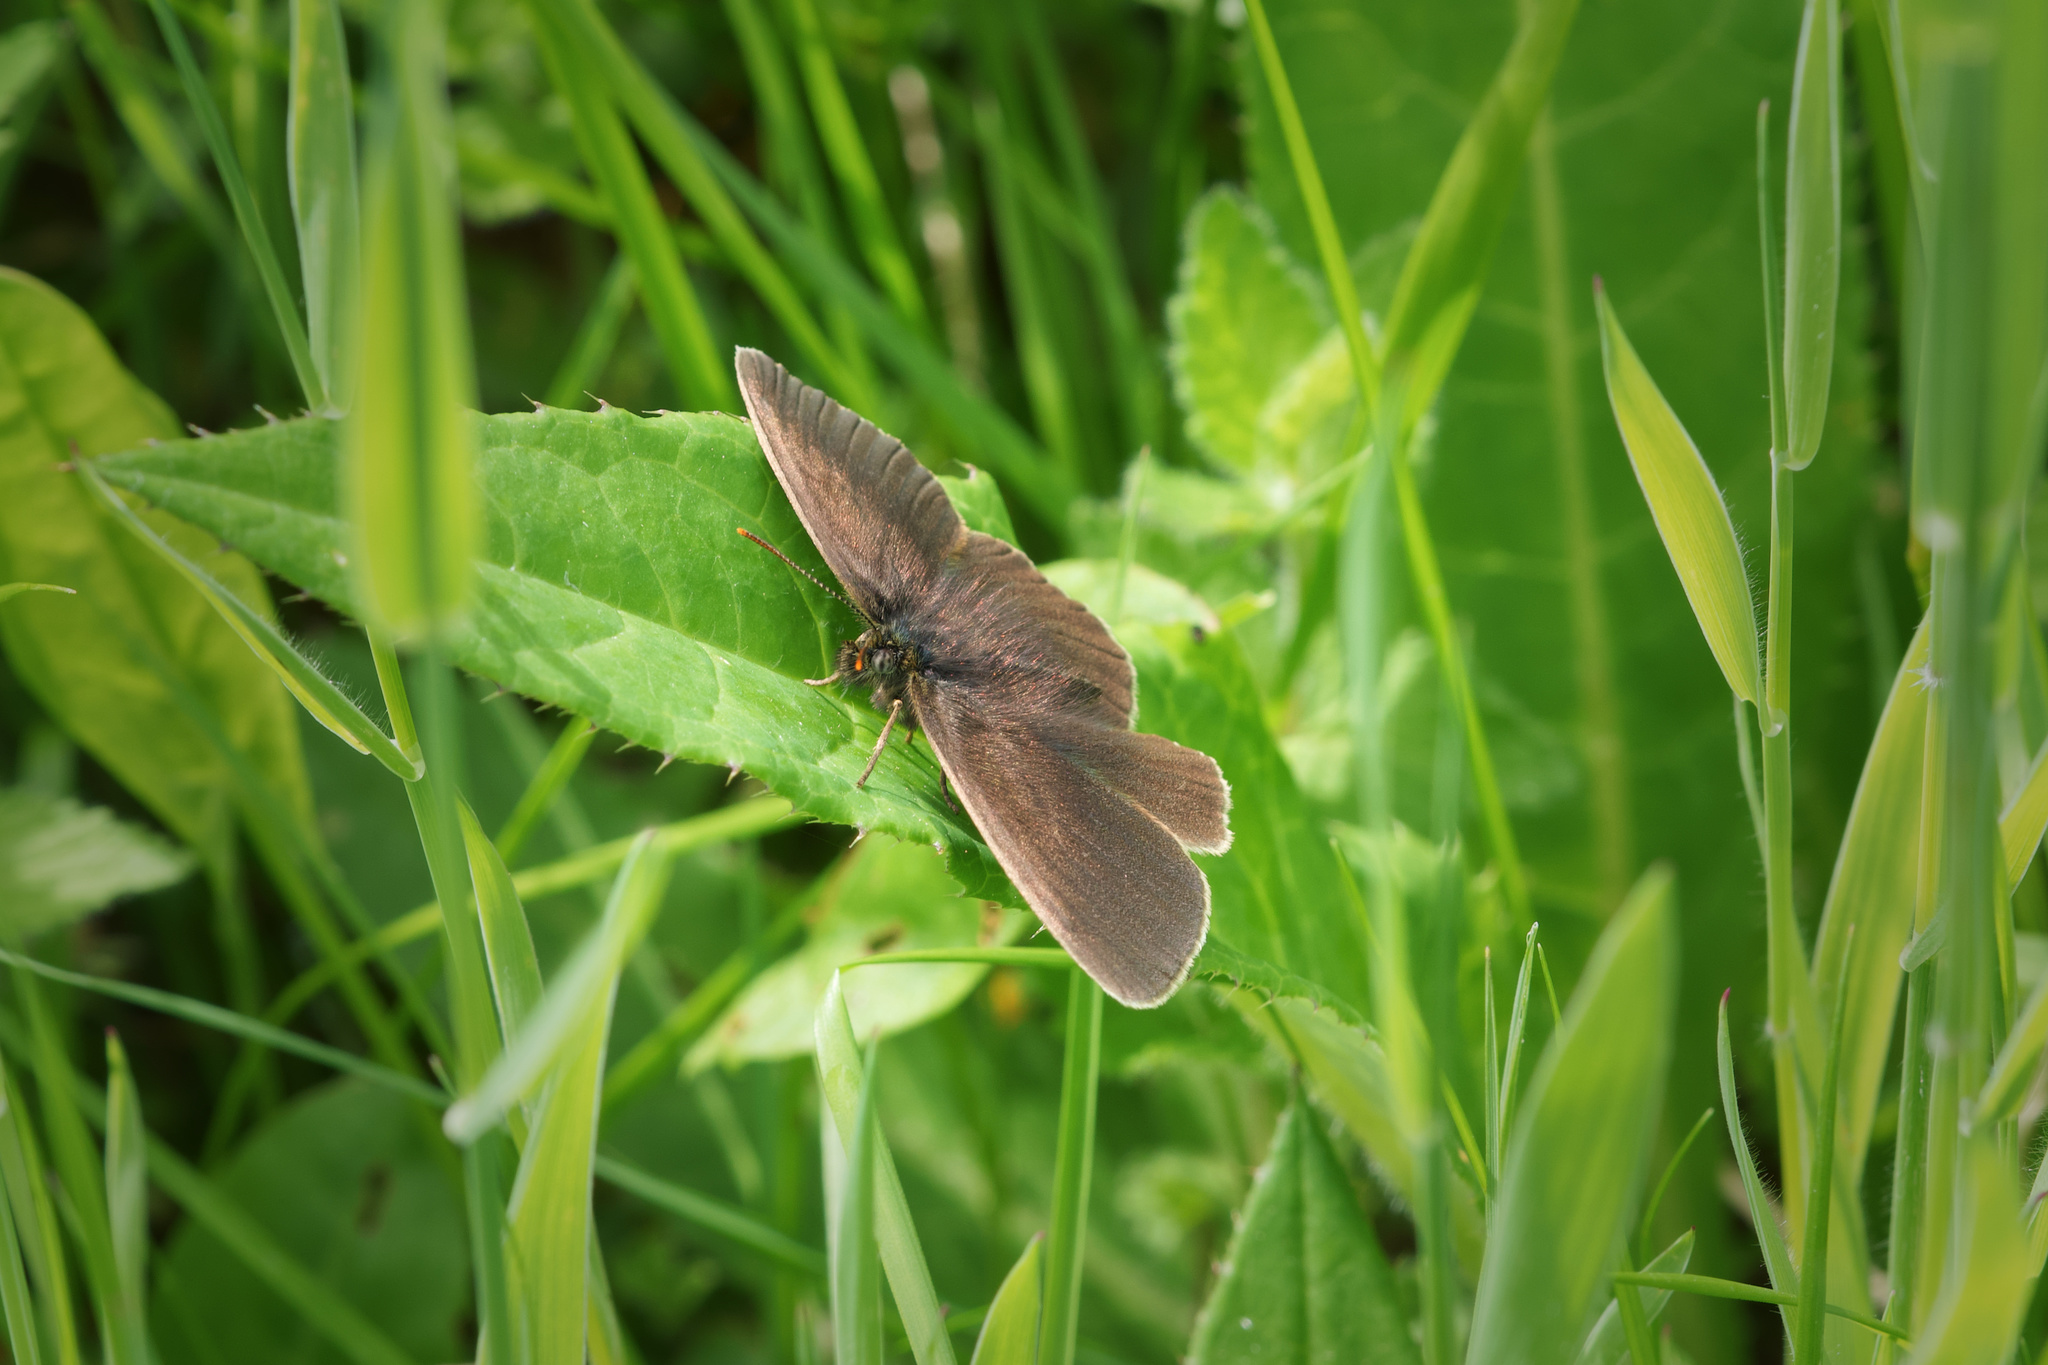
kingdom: Animalia
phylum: Arthropoda
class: Insecta
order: Lepidoptera
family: Nymphalidae
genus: Aphantopus
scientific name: Aphantopus hyperantus
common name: Ringlet
